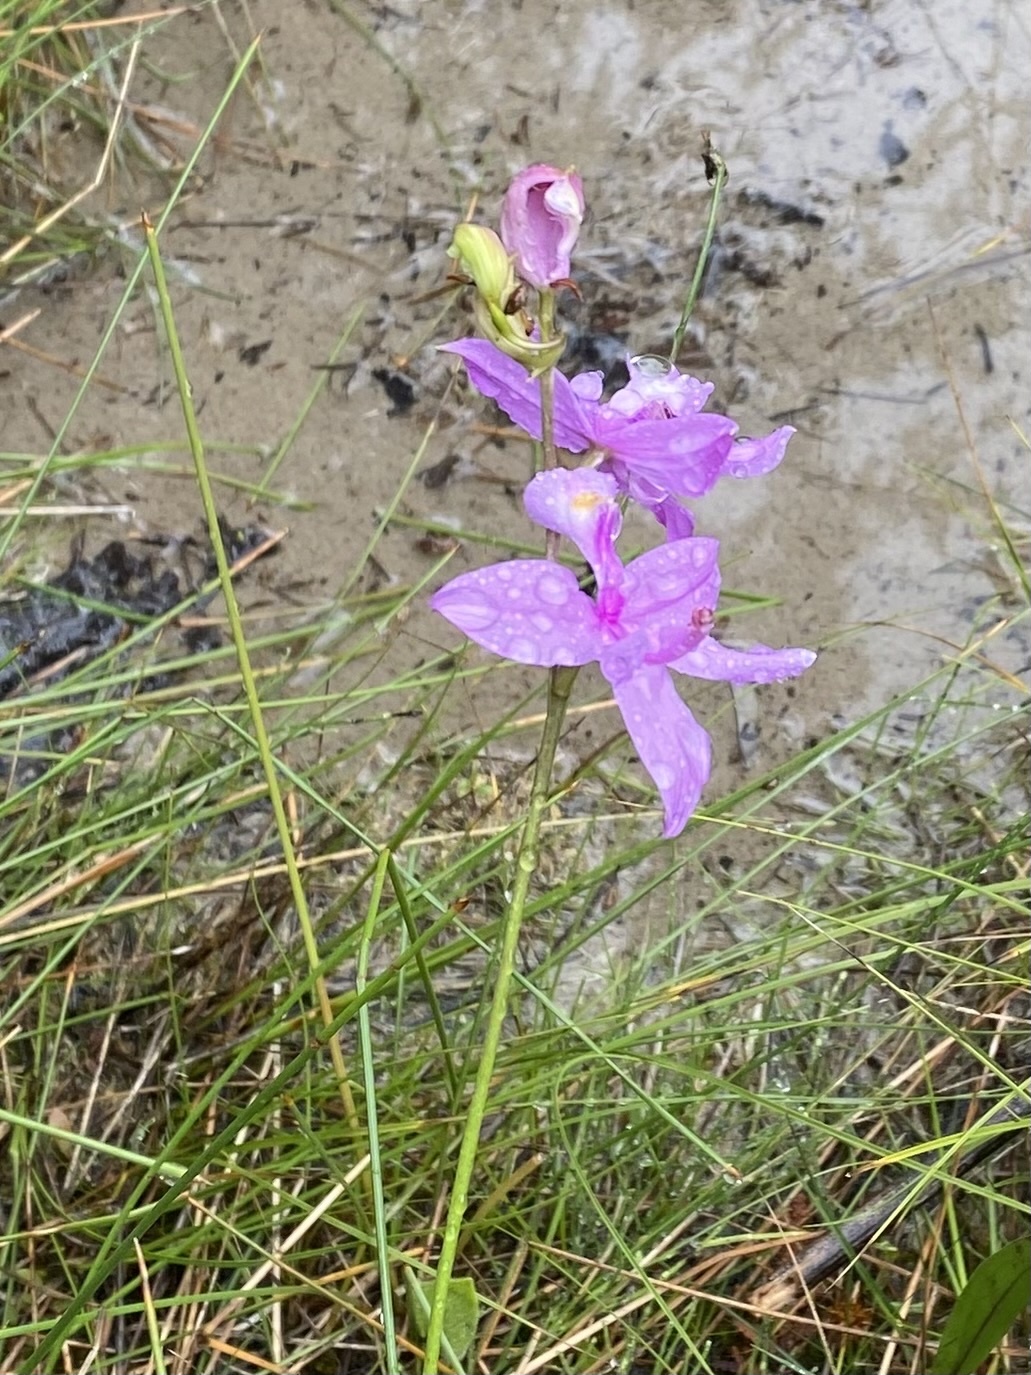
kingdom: Plantae
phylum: Tracheophyta
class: Liliopsida
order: Asparagales
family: Orchidaceae
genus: Calopogon
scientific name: Calopogon tuberosus
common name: Grass-pink
